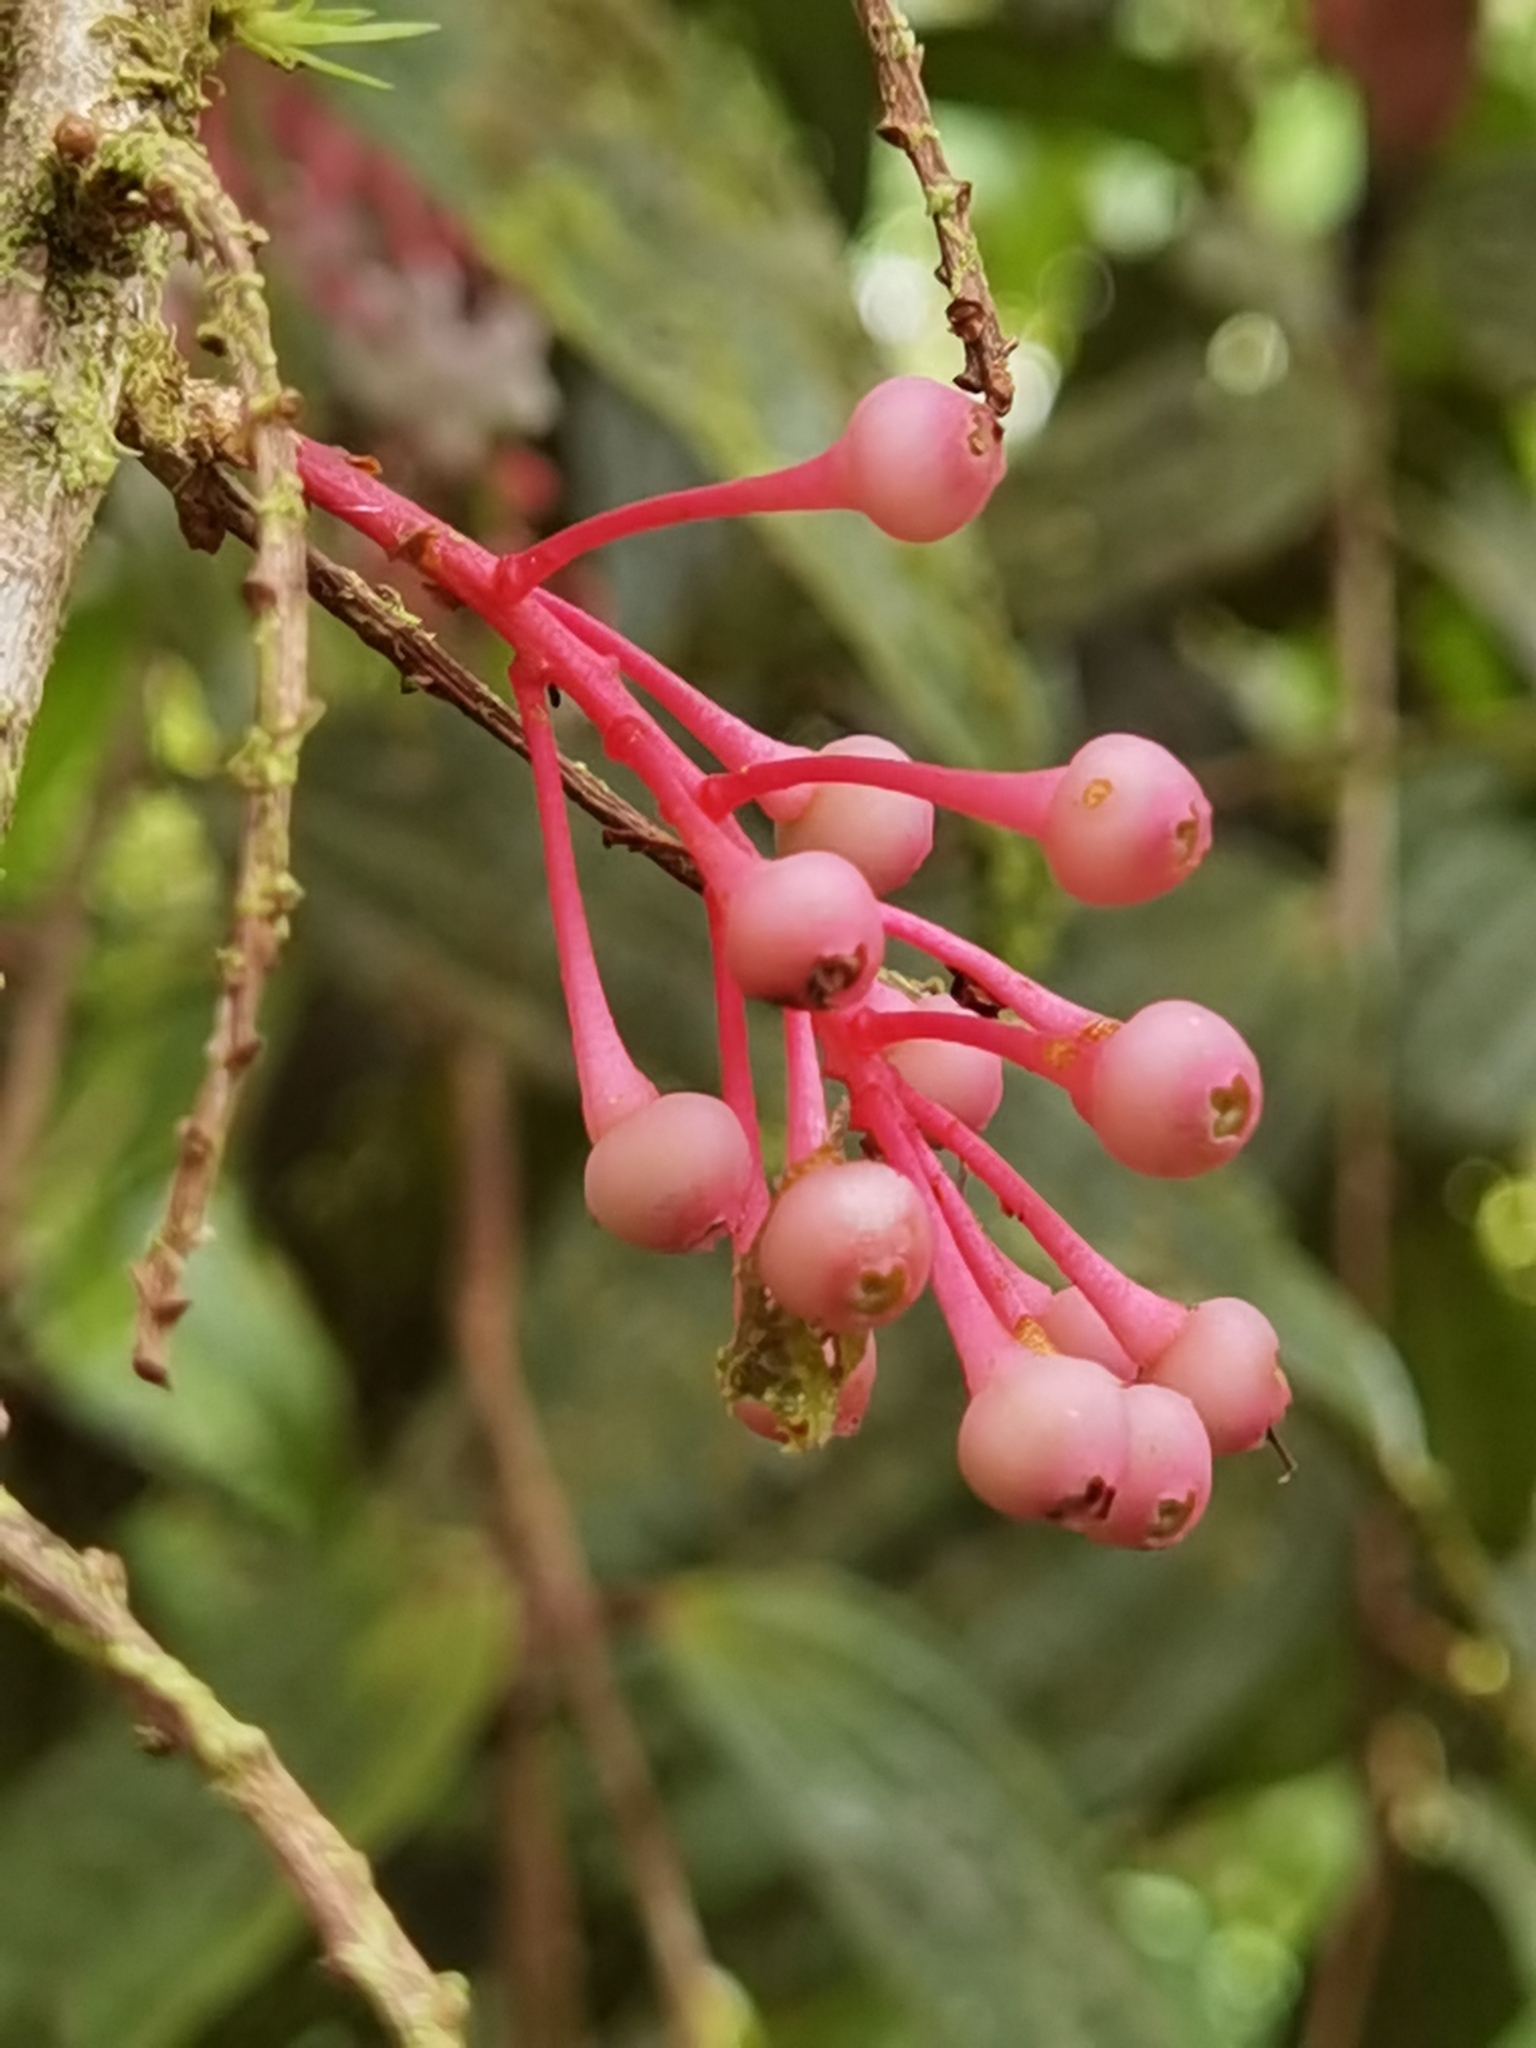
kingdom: Plantae
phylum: Tracheophyta
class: Magnoliopsida
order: Ericales
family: Ericaceae
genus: Thibaudia
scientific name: Thibaudia costaricensis
